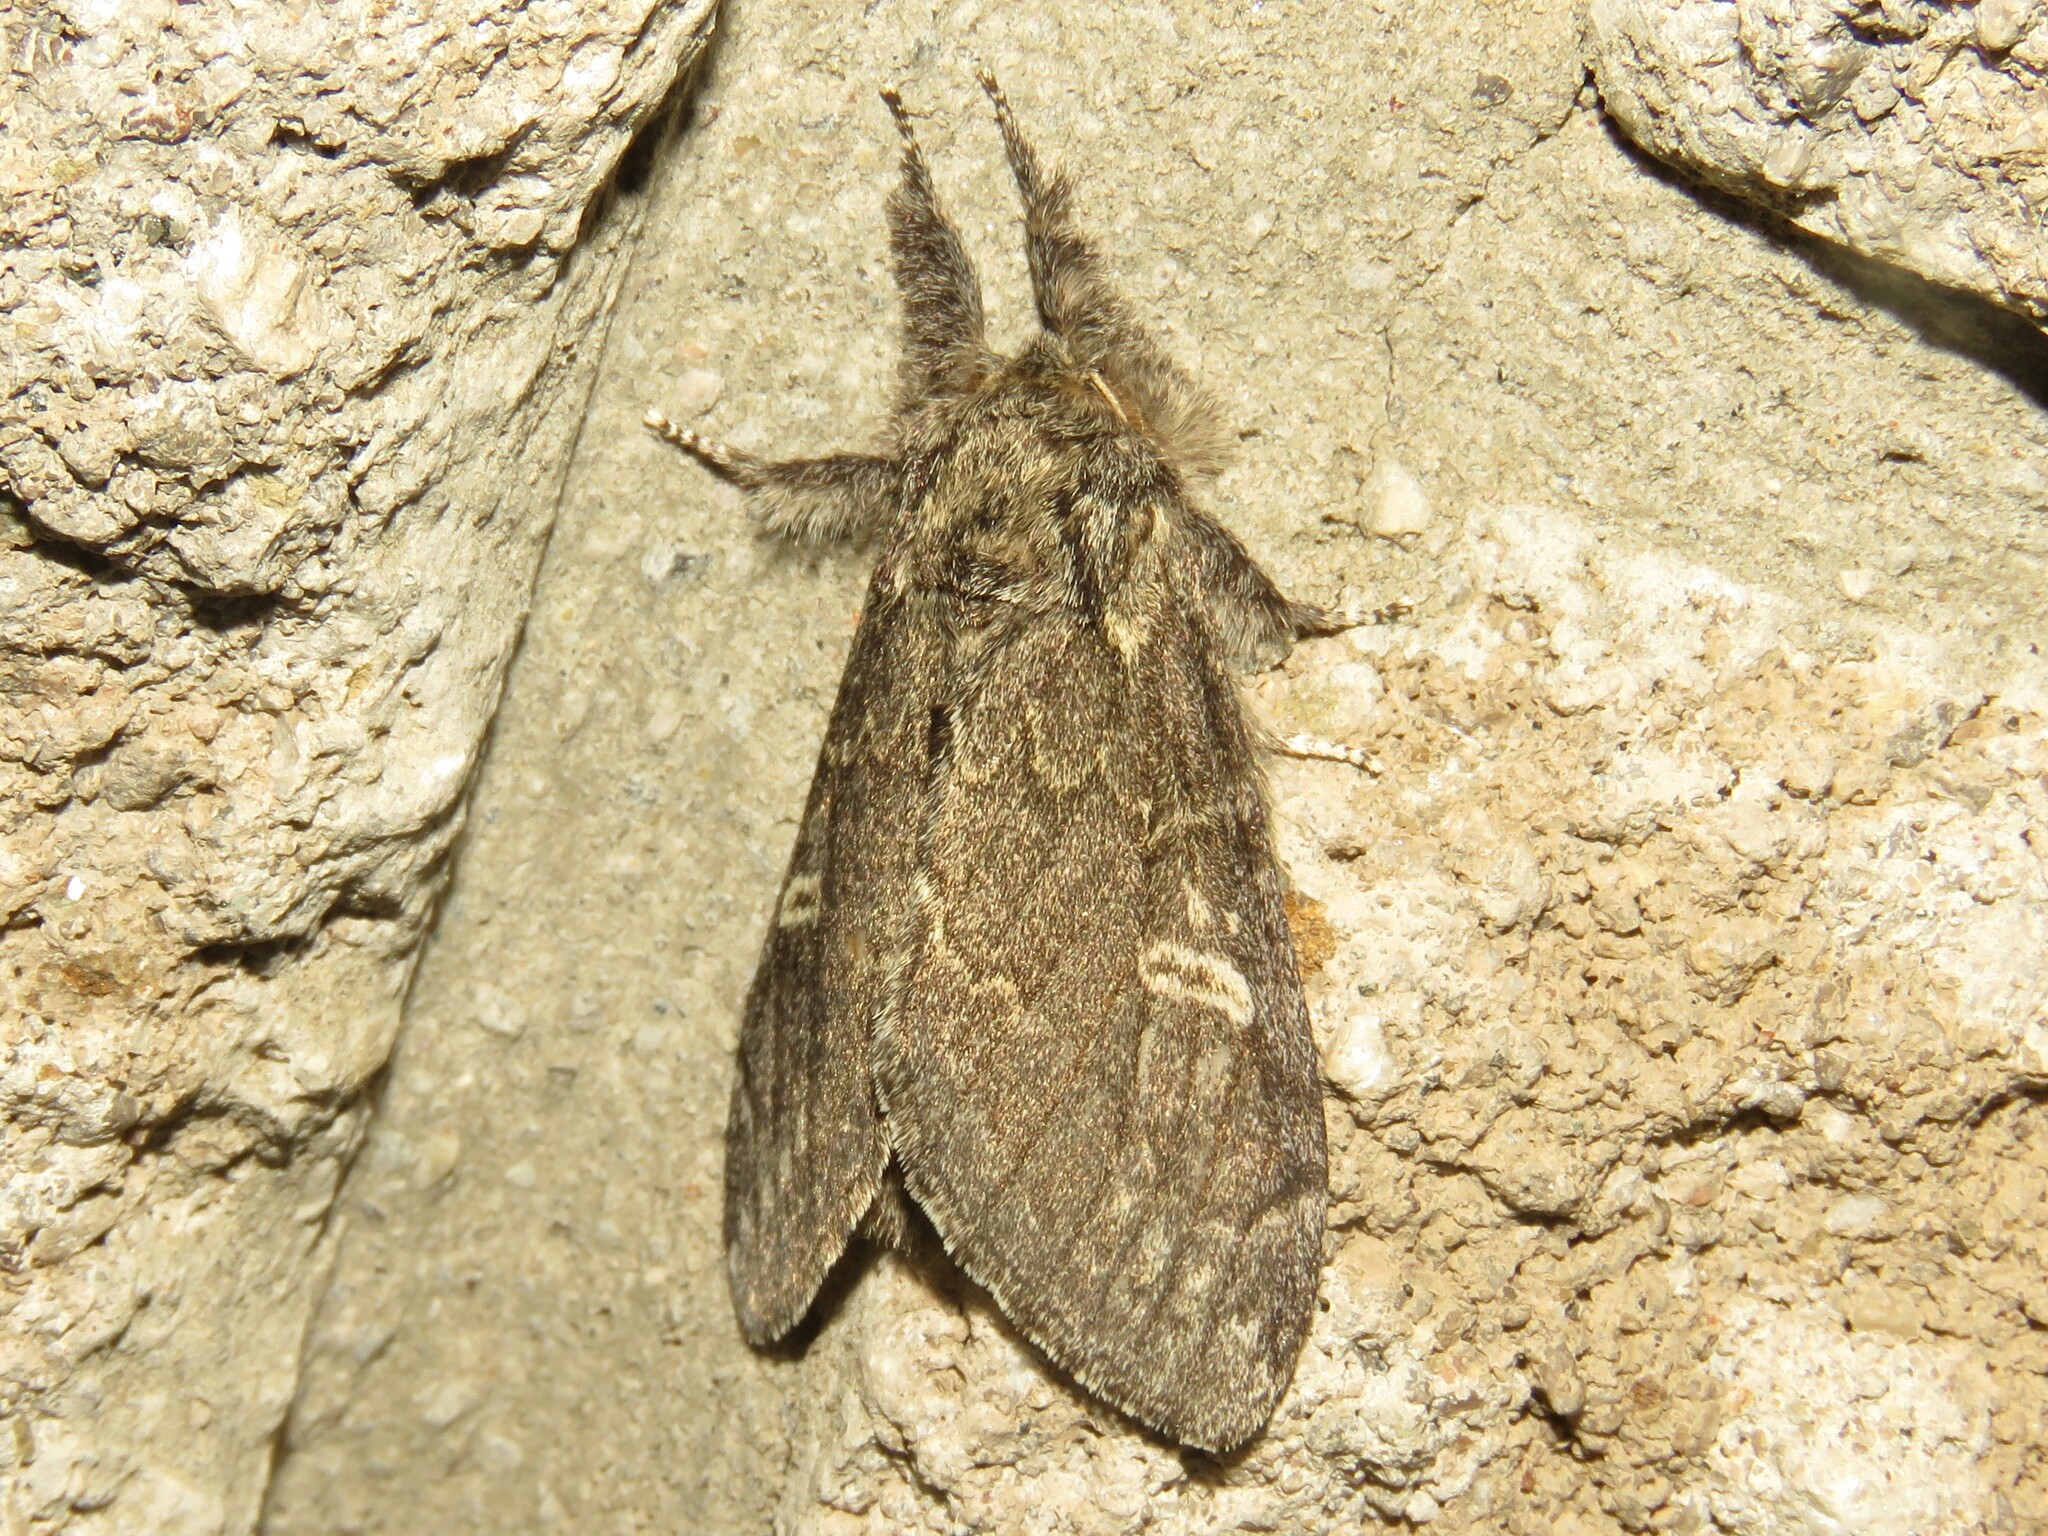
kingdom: Animalia
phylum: Arthropoda
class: Insecta
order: Lepidoptera
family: Notodontidae
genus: Notodonta
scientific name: Notodonta torva
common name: Large dark prominent
